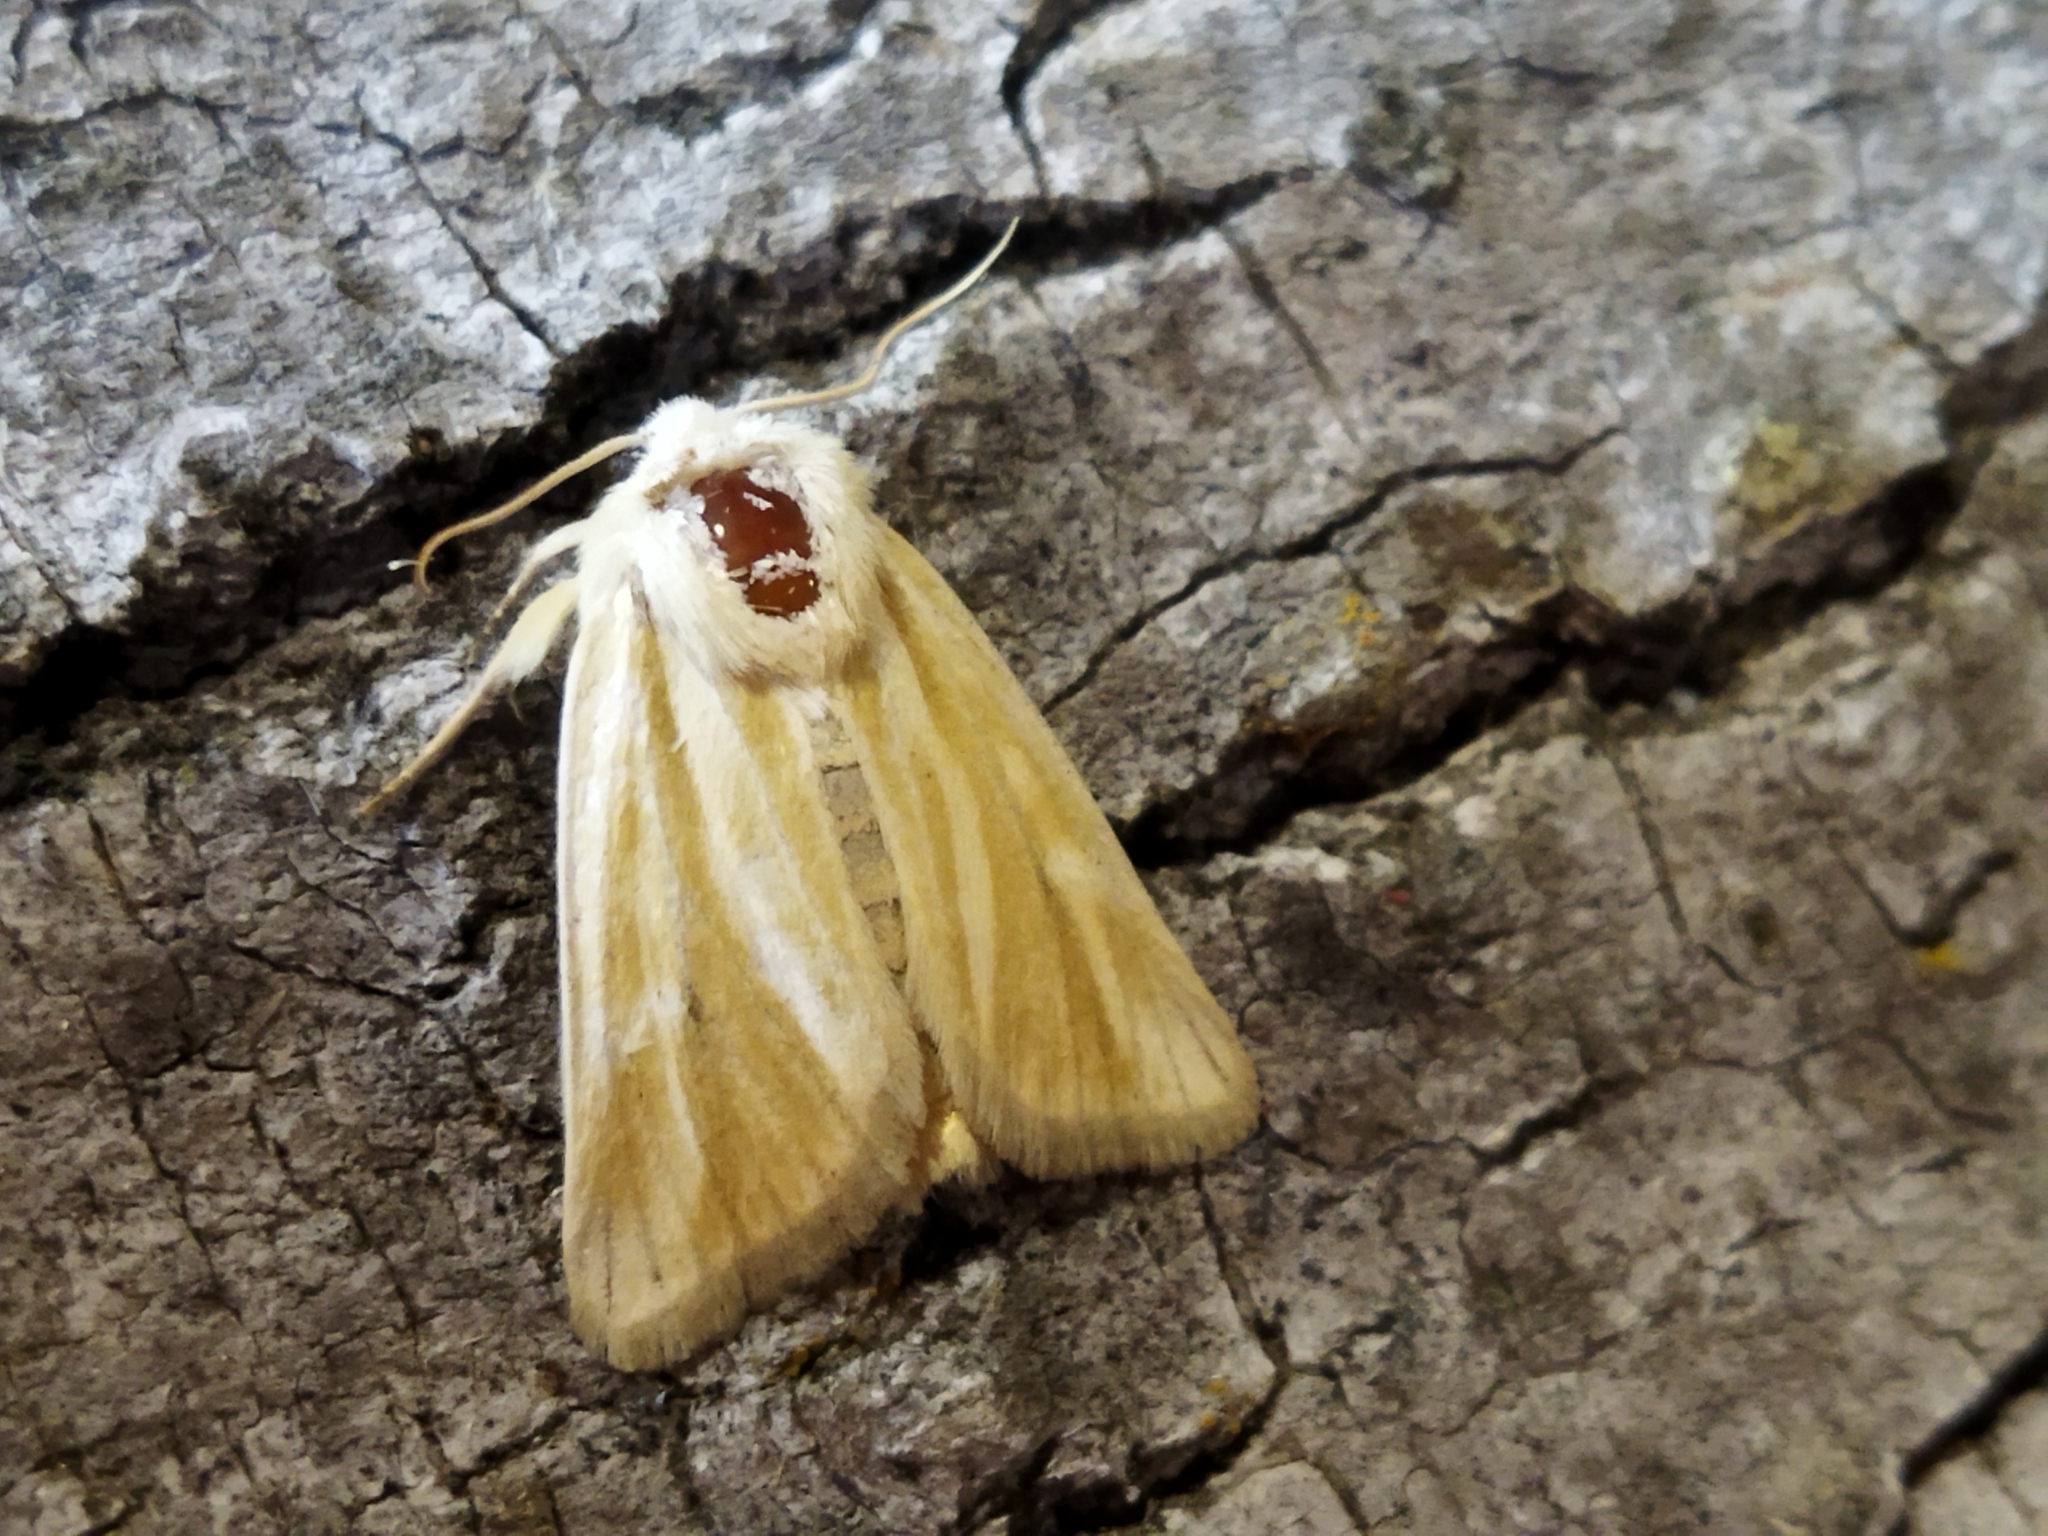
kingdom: Animalia
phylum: Arthropoda
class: Insecta
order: Lepidoptera
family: Noctuidae
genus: Oria
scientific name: Oria musculosa
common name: Brighton wainscot
